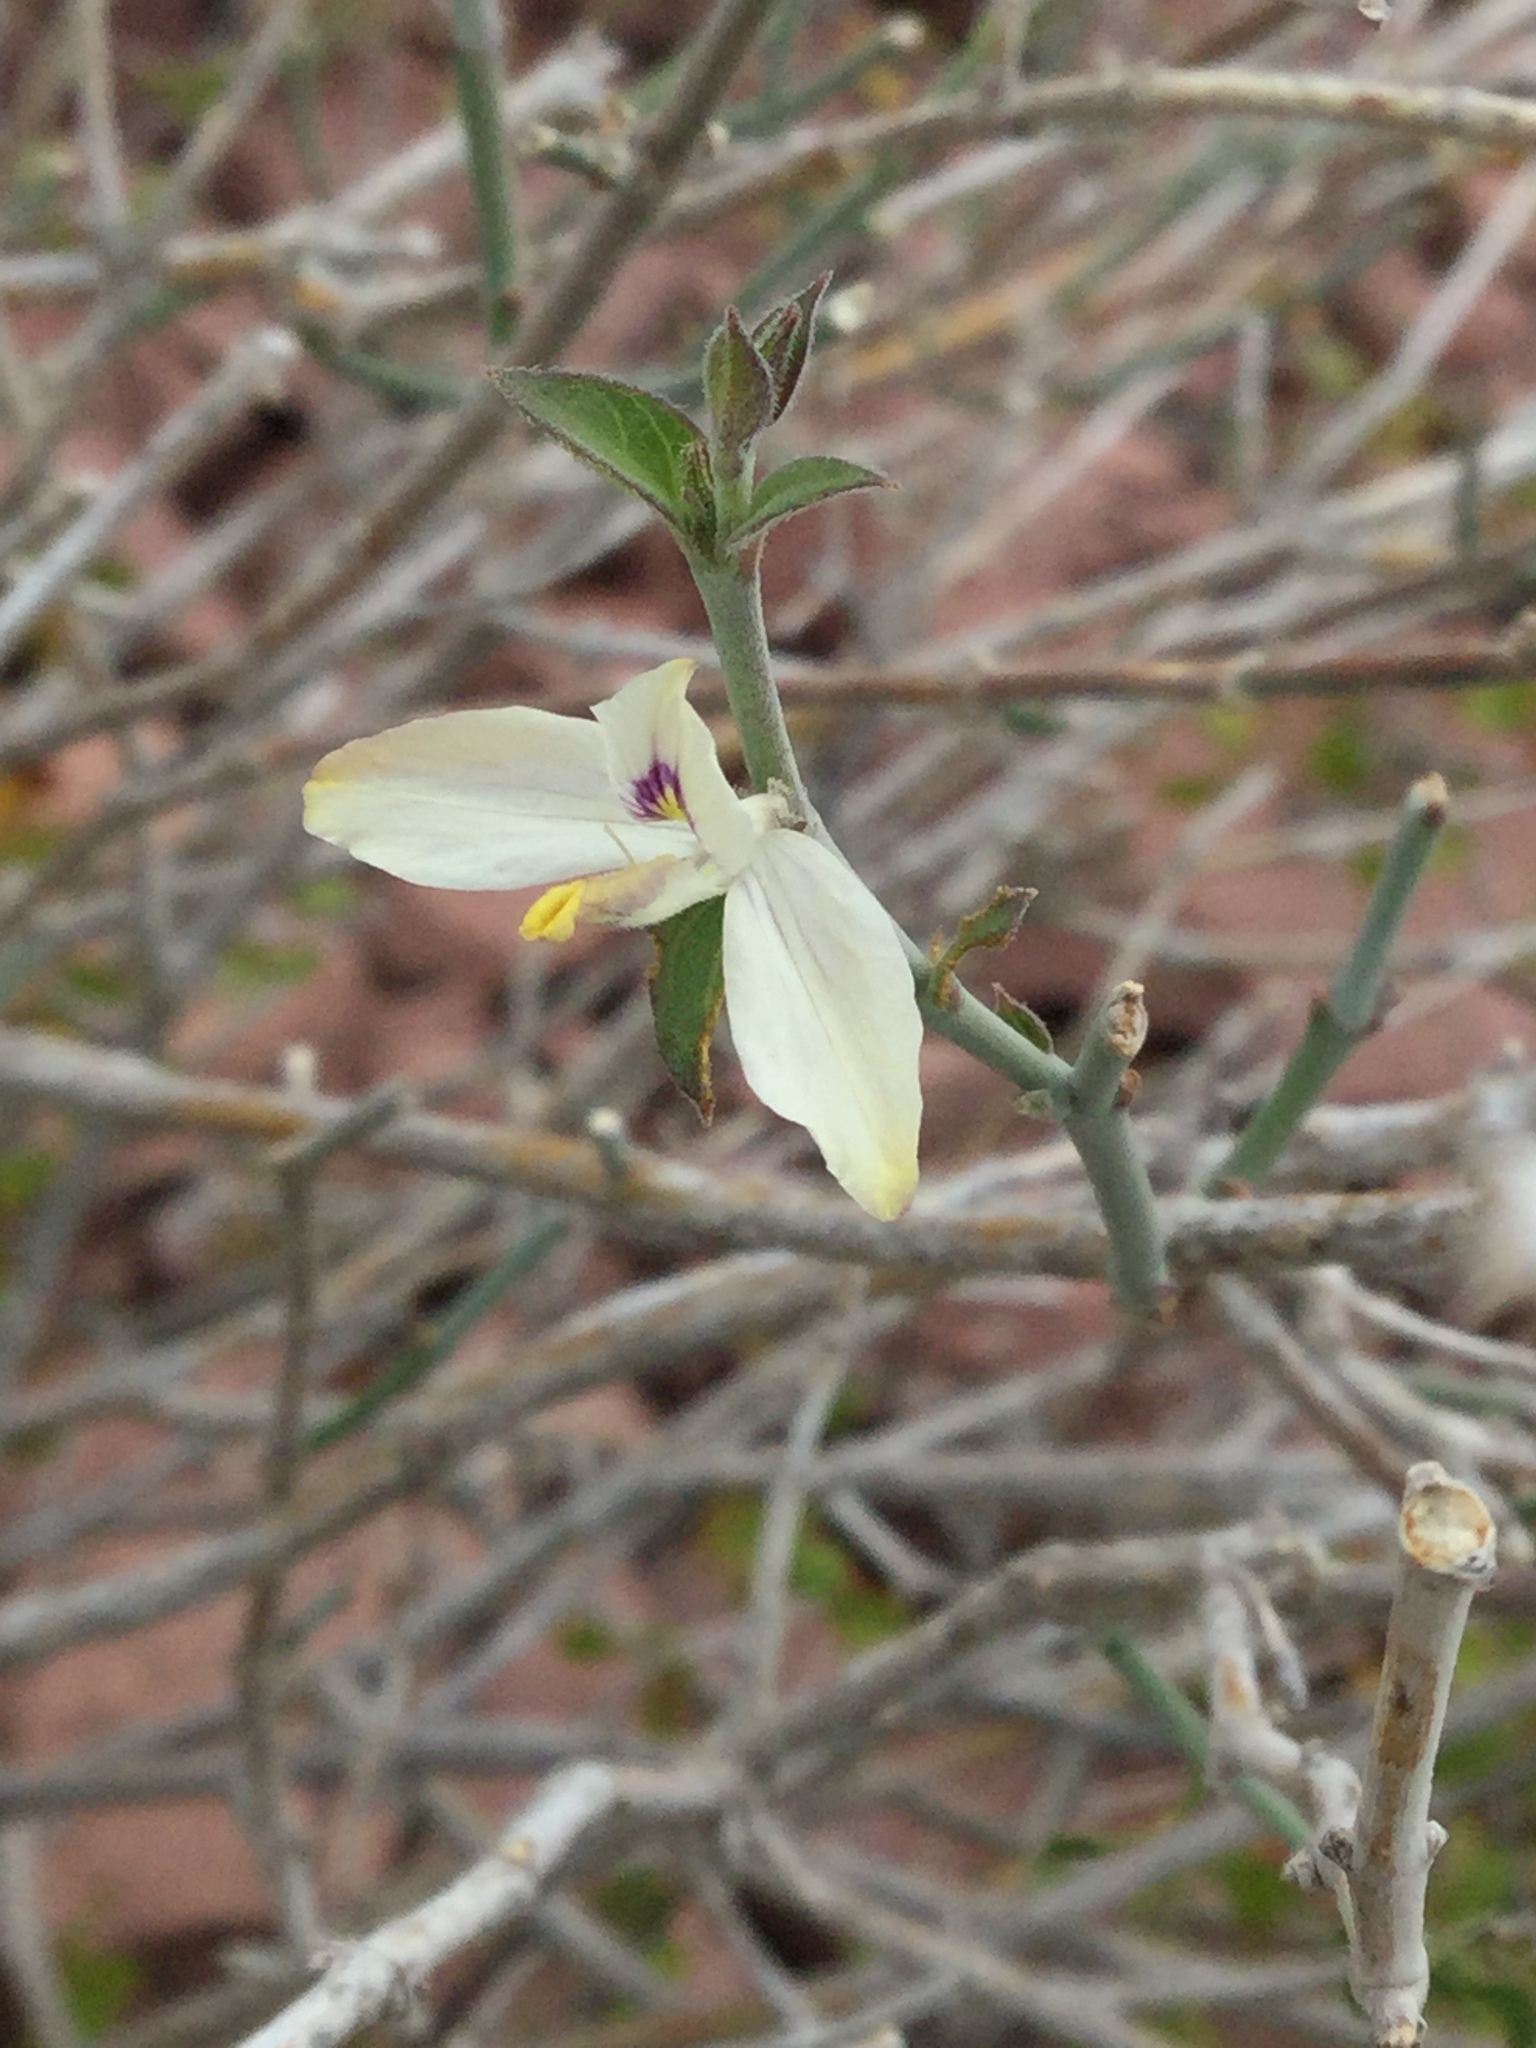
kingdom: Plantae
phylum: Tracheophyta
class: Magnoliopsida
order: Lamiales
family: Acanthaceae
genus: Carlowrightia
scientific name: Carlowrightia arizonica
